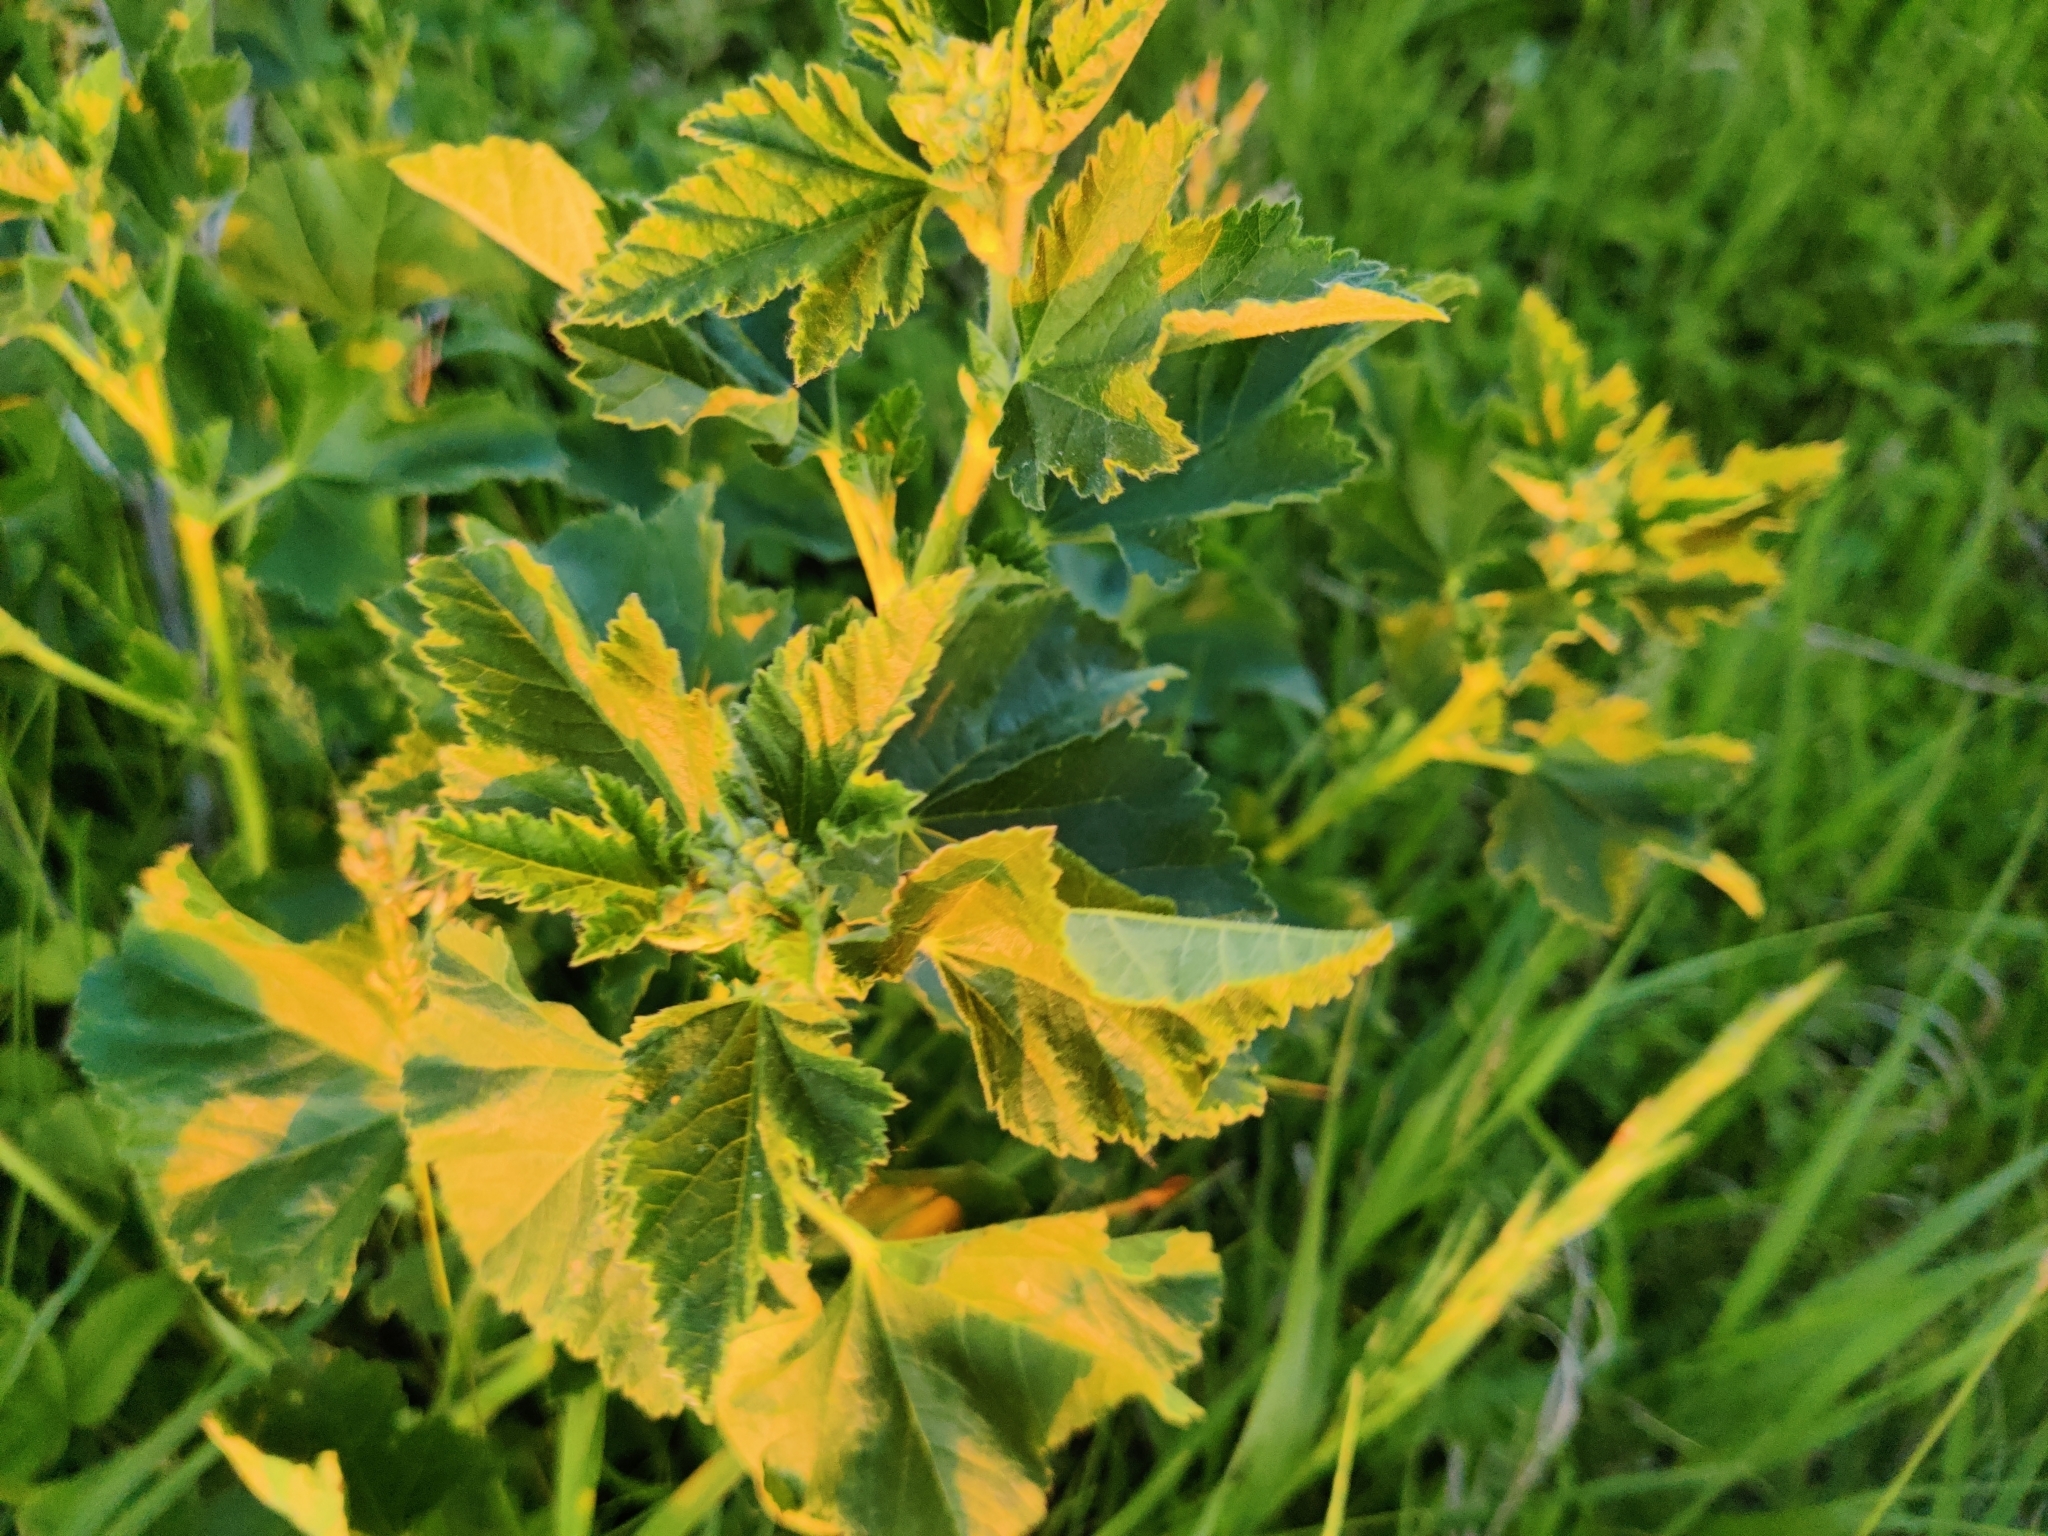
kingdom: Plantae
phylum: Tracheophyta
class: Magnoliopsida
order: Malvales
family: Malvaceae
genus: Malva
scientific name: Malva thuringiaca
